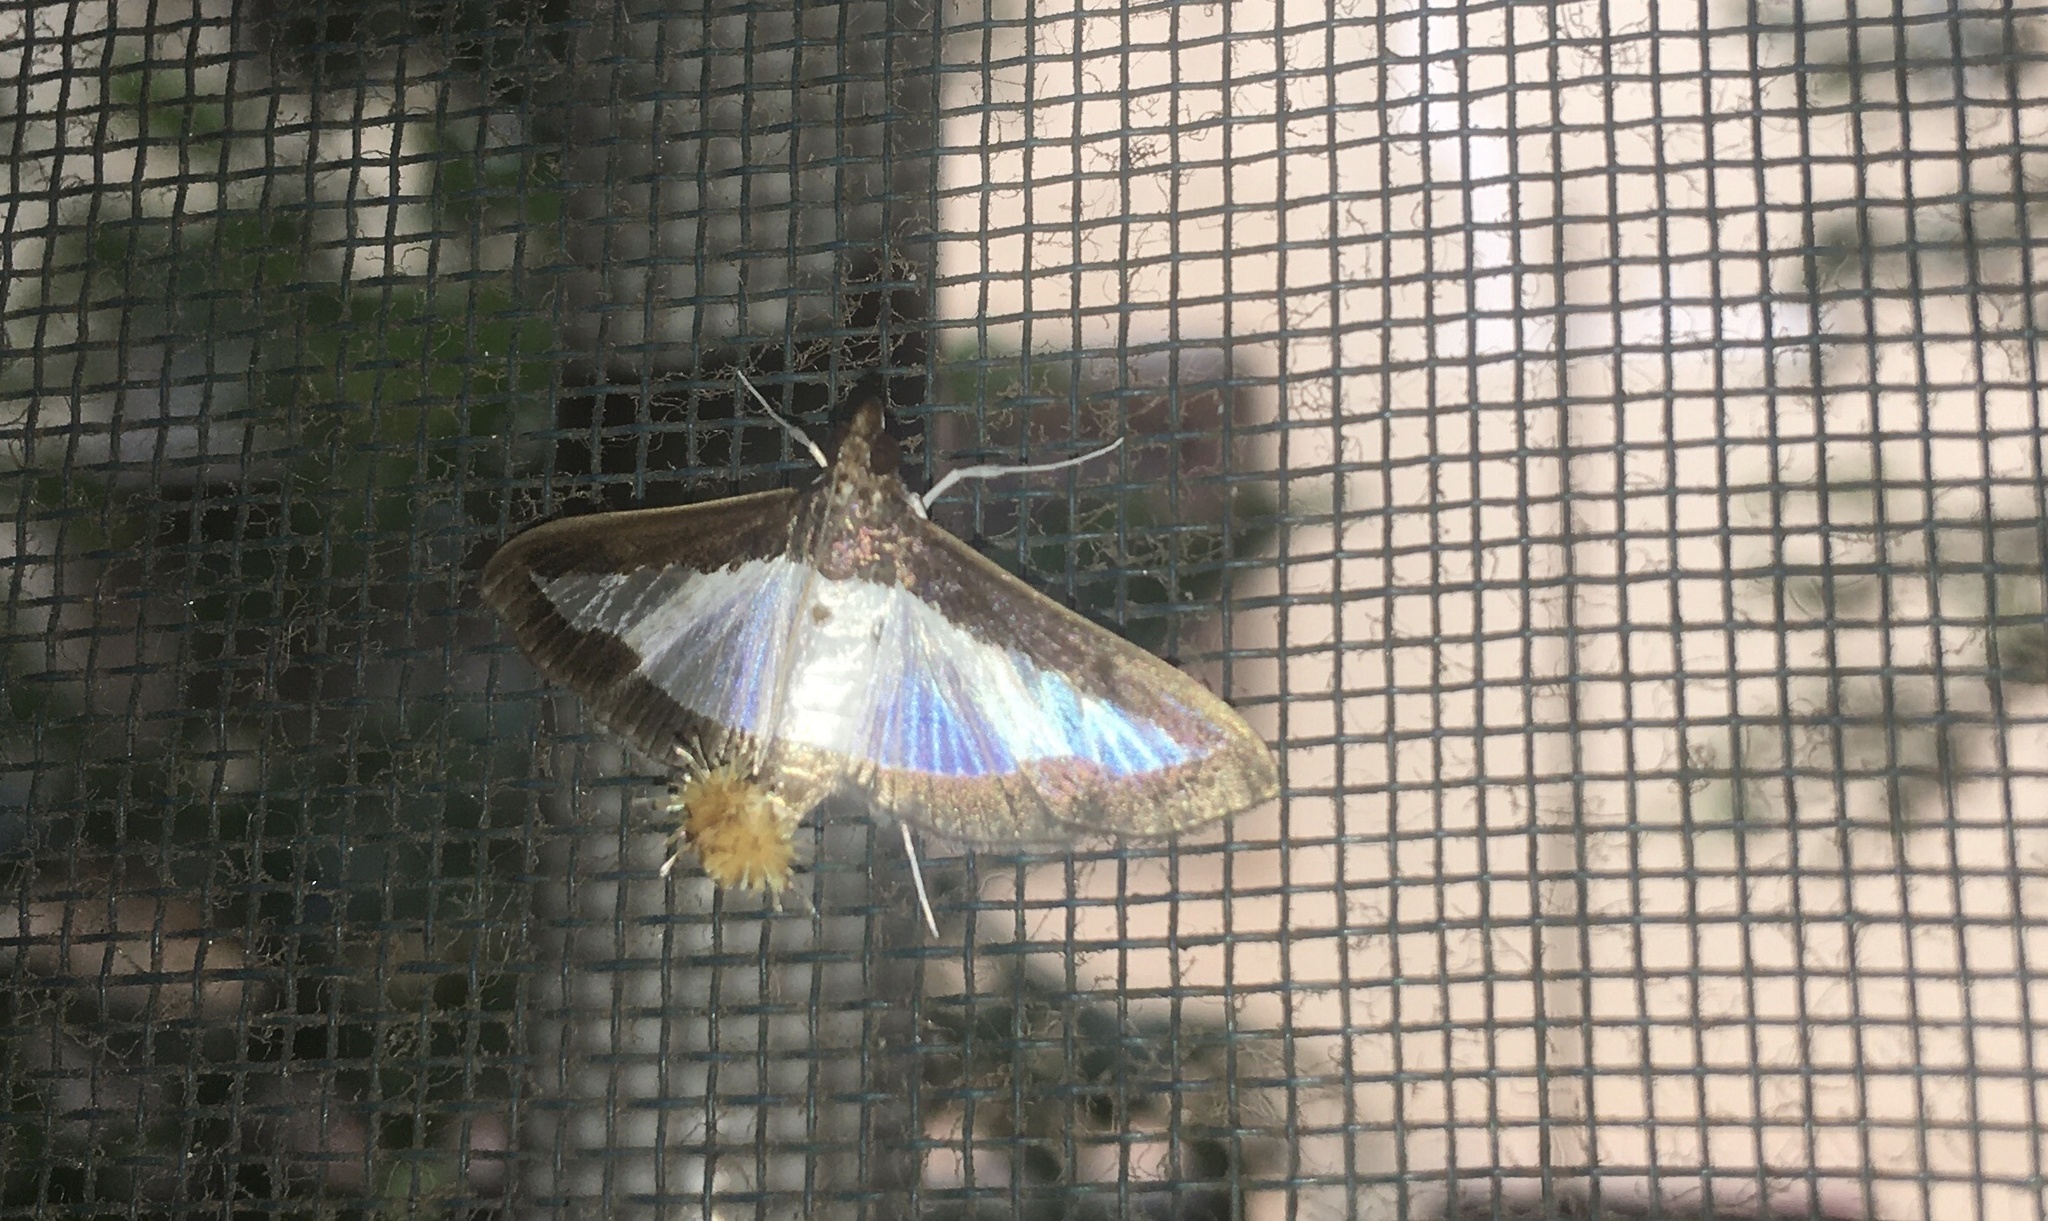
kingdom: Animalia
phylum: Arthropoda
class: Insecta
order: Lepidoptera
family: Crambidae
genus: Diaphania
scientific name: Diaphania indica
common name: Cucumber moth
